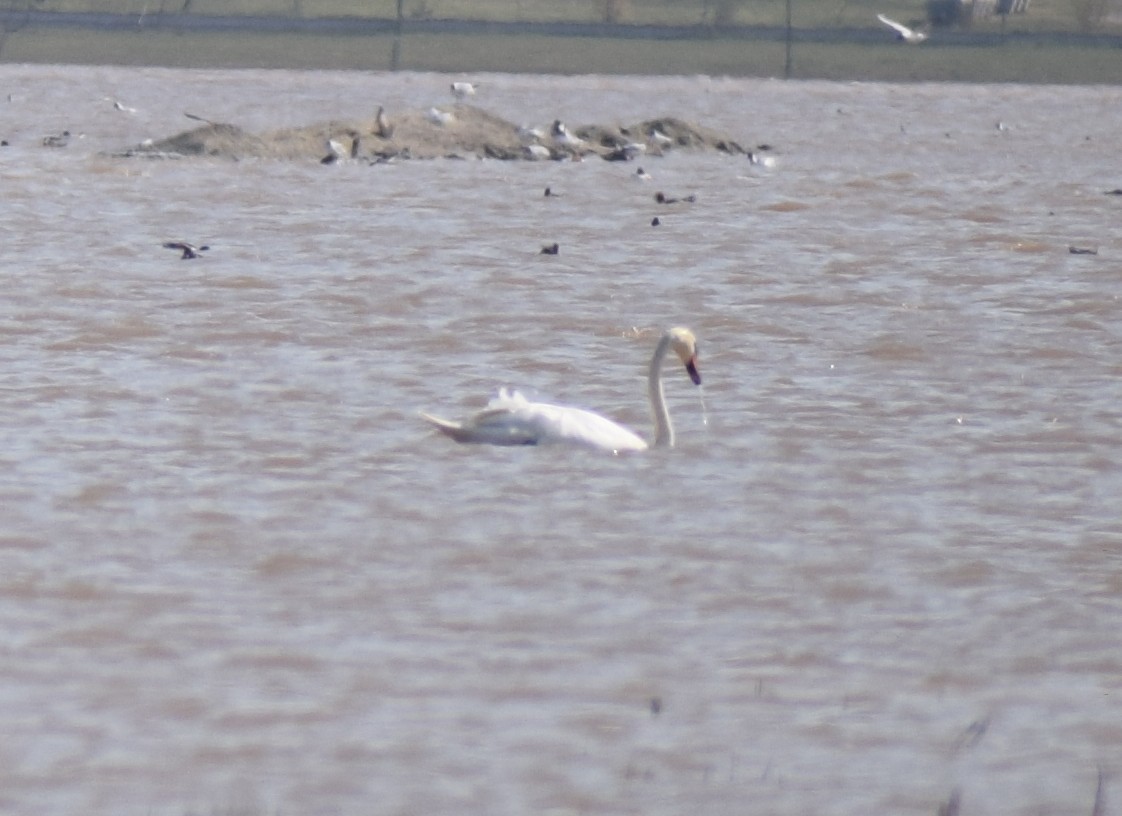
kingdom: Animalia
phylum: Chordata
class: Aves
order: Anseriformes
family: Anatidae
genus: Cygnus
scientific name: Cygnus olor
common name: Mute swan
